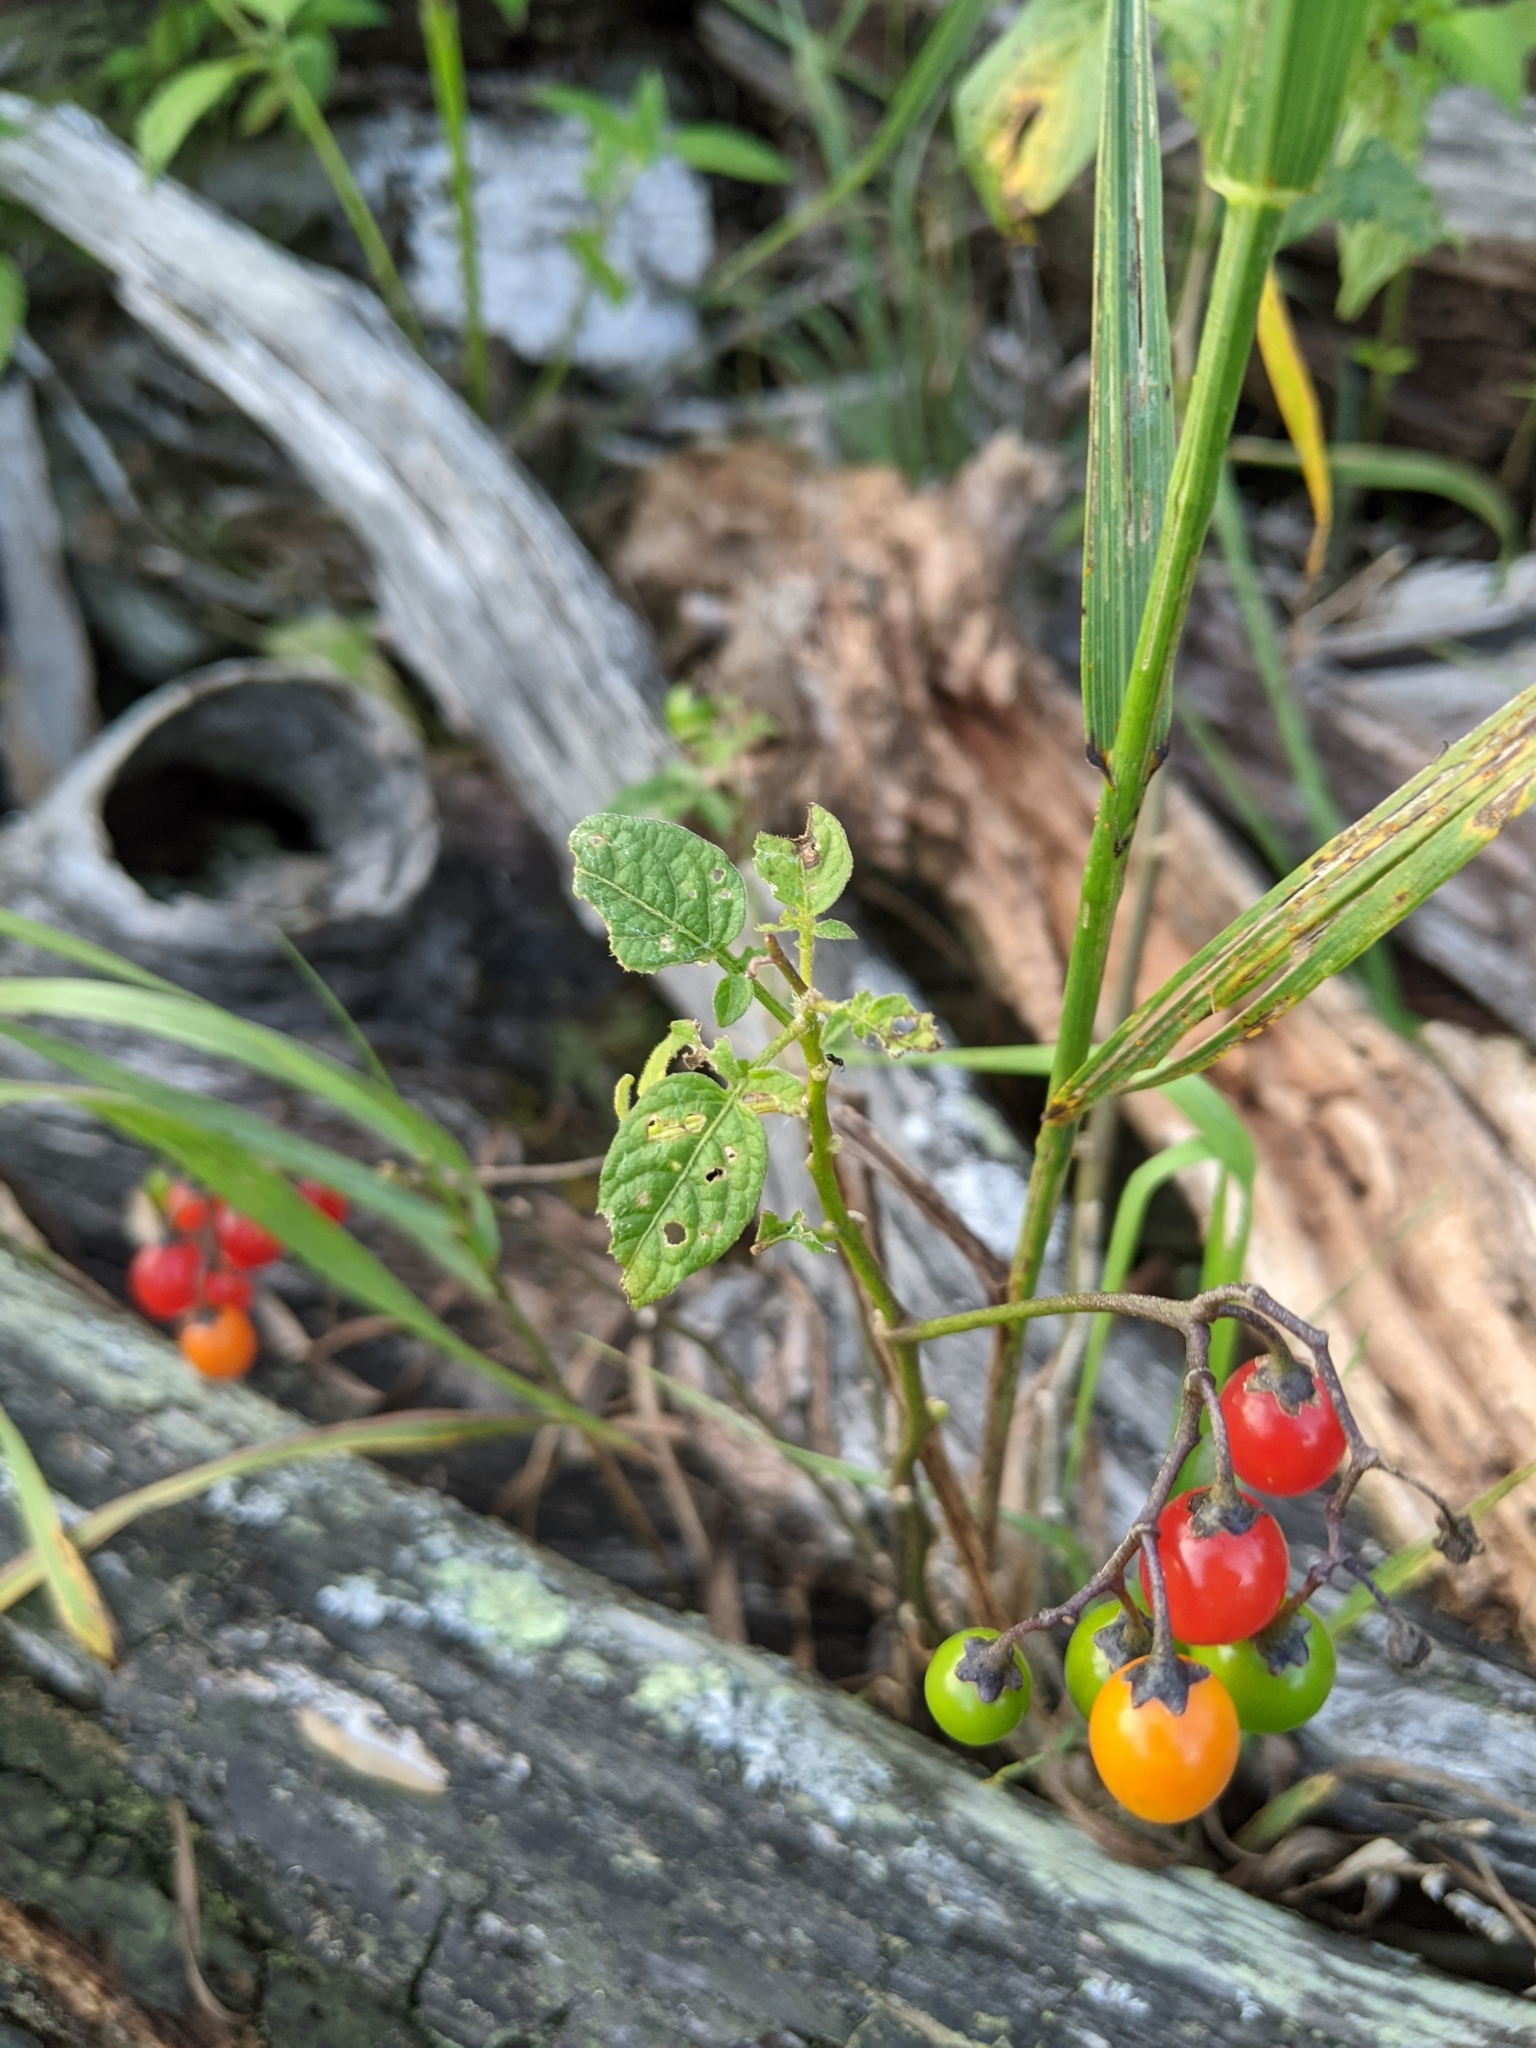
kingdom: Plantae
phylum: Tracheophyta
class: Magnoliopsida
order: Solanales
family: Solanaceae
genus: Solanum
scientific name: Solanum dulcamara
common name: Climbing nightshade
